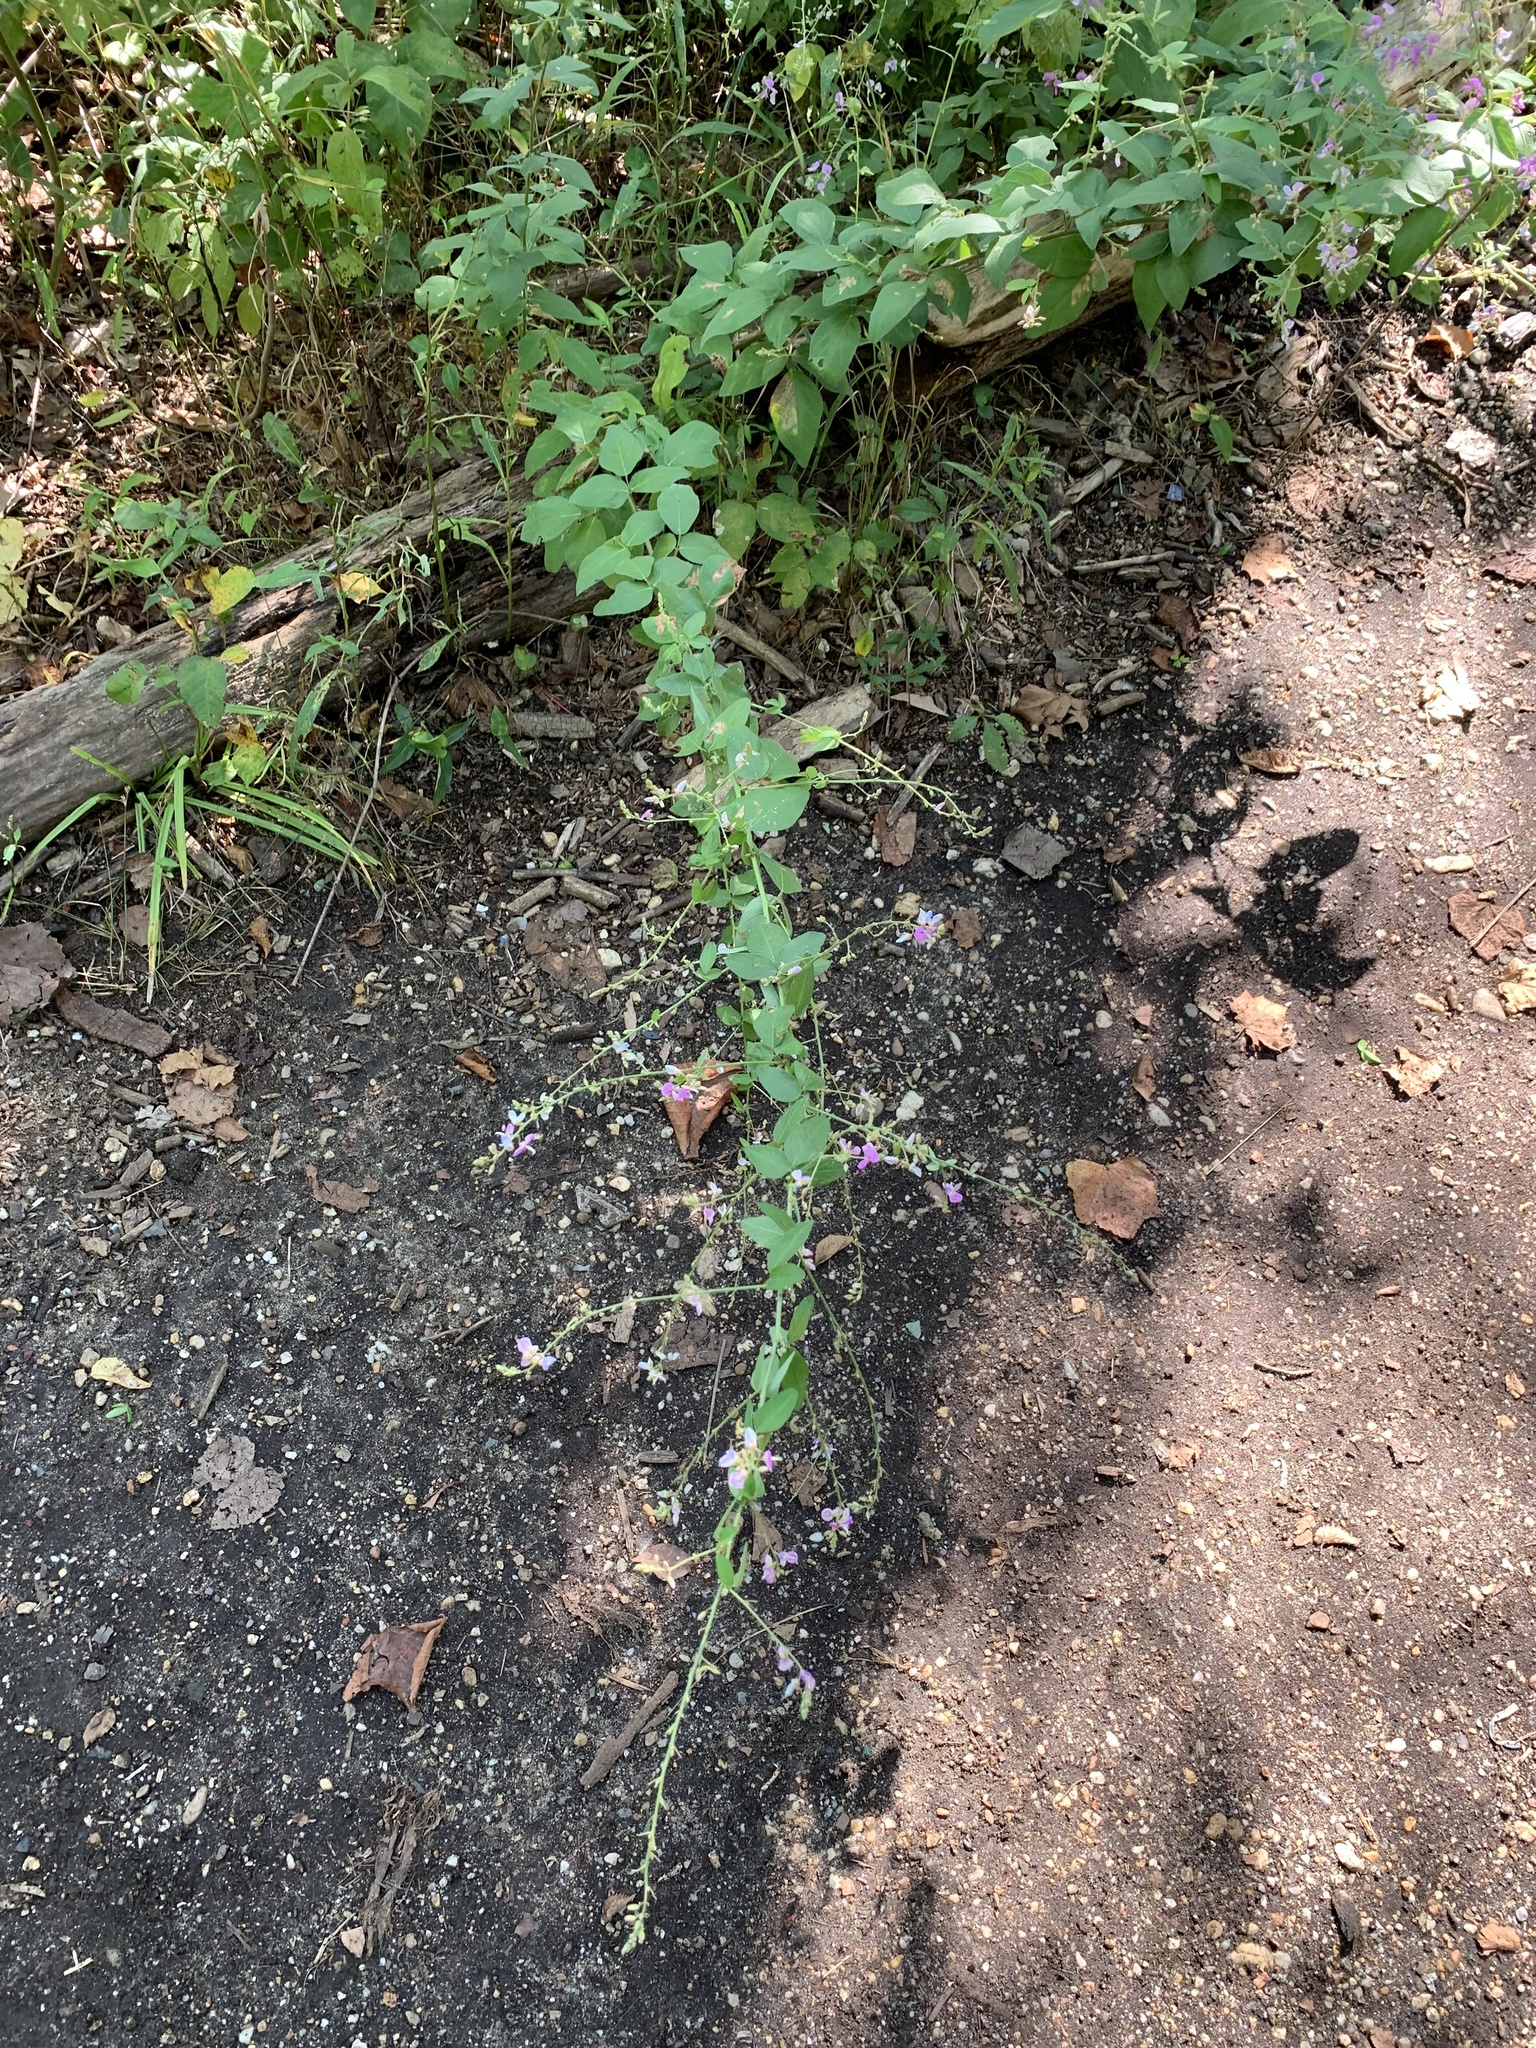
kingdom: Plantae
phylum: Tracheophyta
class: Magnoliopsida
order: Fabales
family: Fabaceae
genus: Desmodium
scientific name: Desmodium glabellum
